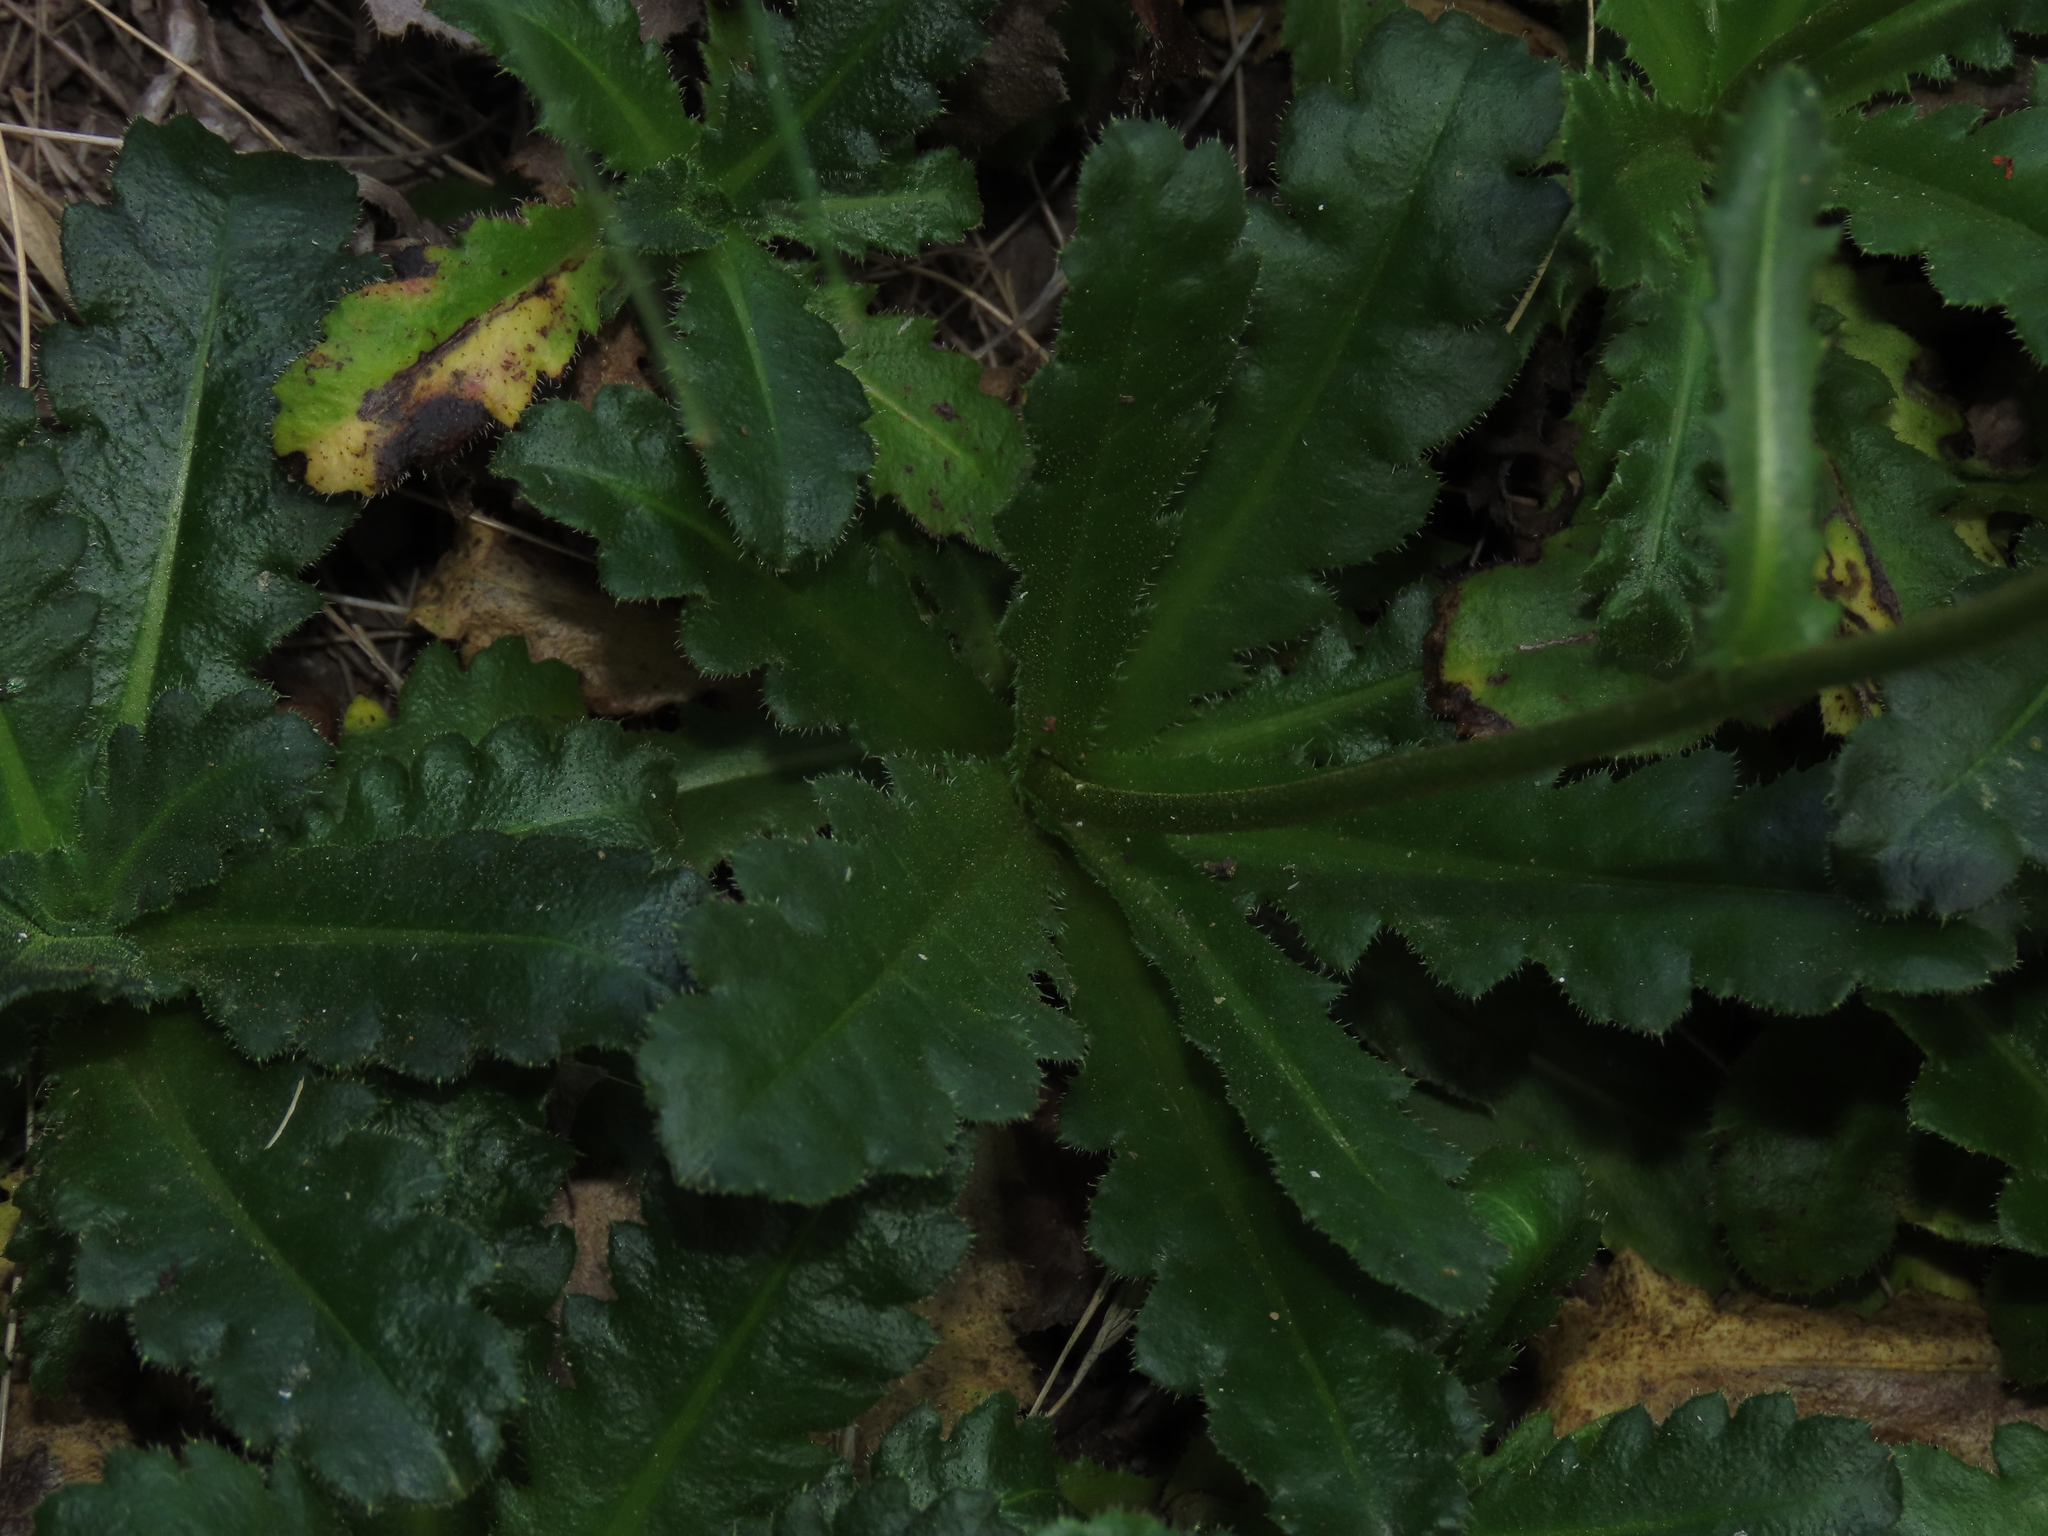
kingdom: Plantae
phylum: Tracheophyta
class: Magnoliopsida
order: Asterales
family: Asteraceae
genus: Perezia
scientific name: Perezia fonckii
